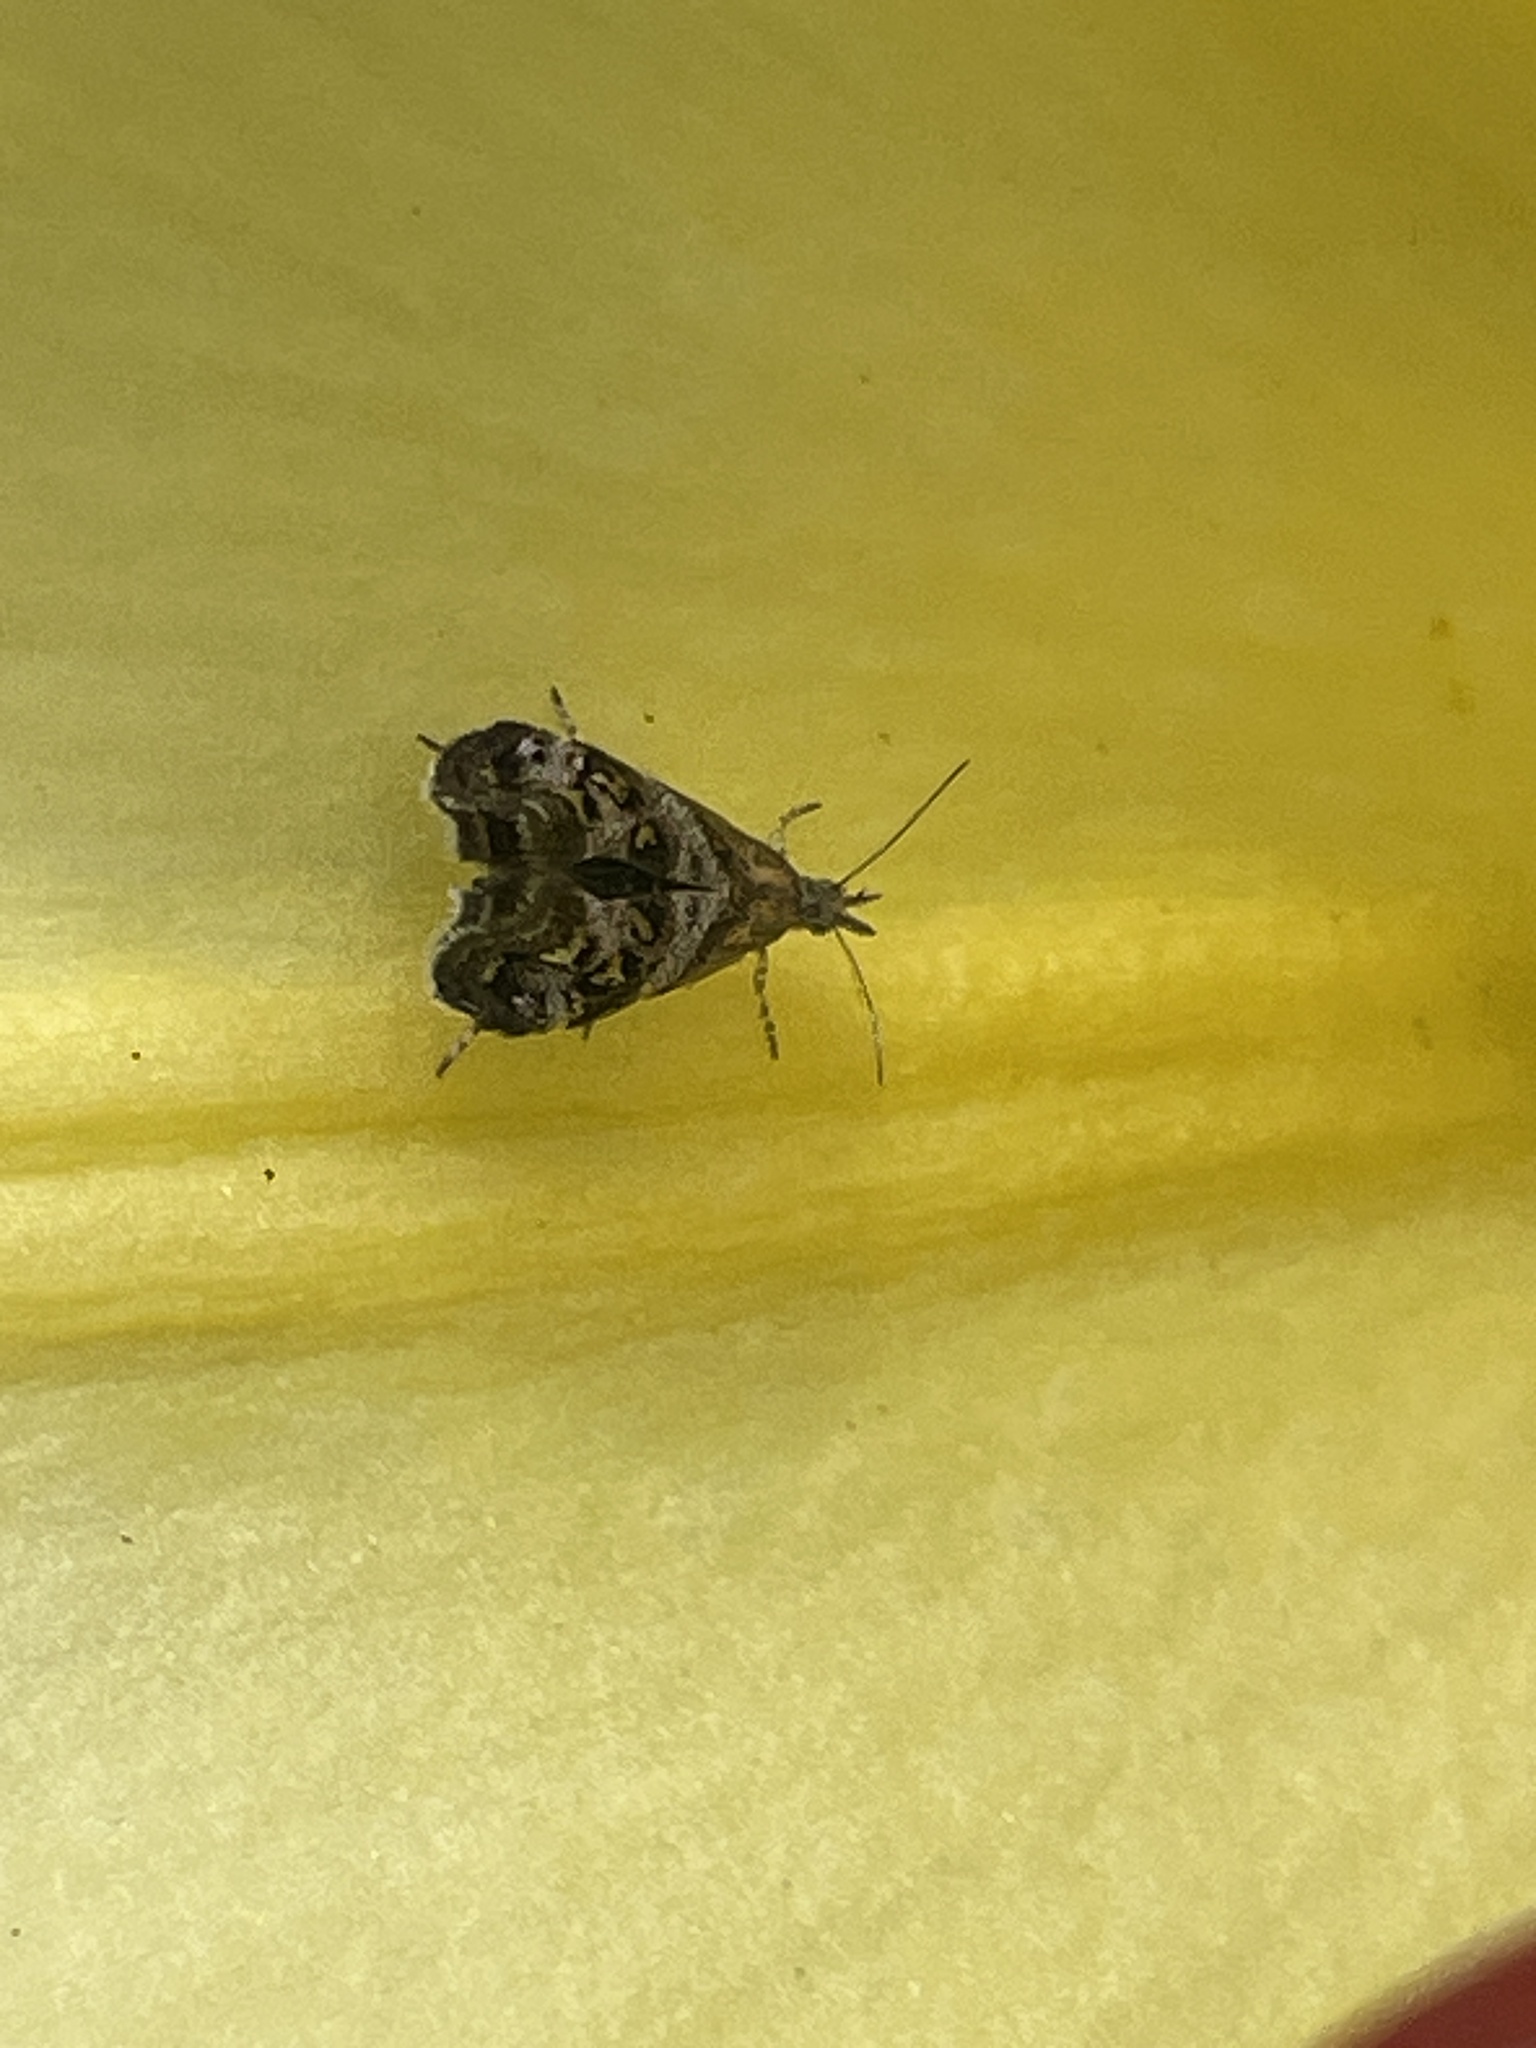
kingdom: Animalia
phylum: Arthropoda
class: Insecta
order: Lepidoptera
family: Choreutidae
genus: Tebenna
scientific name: Tebenna micalis
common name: Vagrant twitcher
